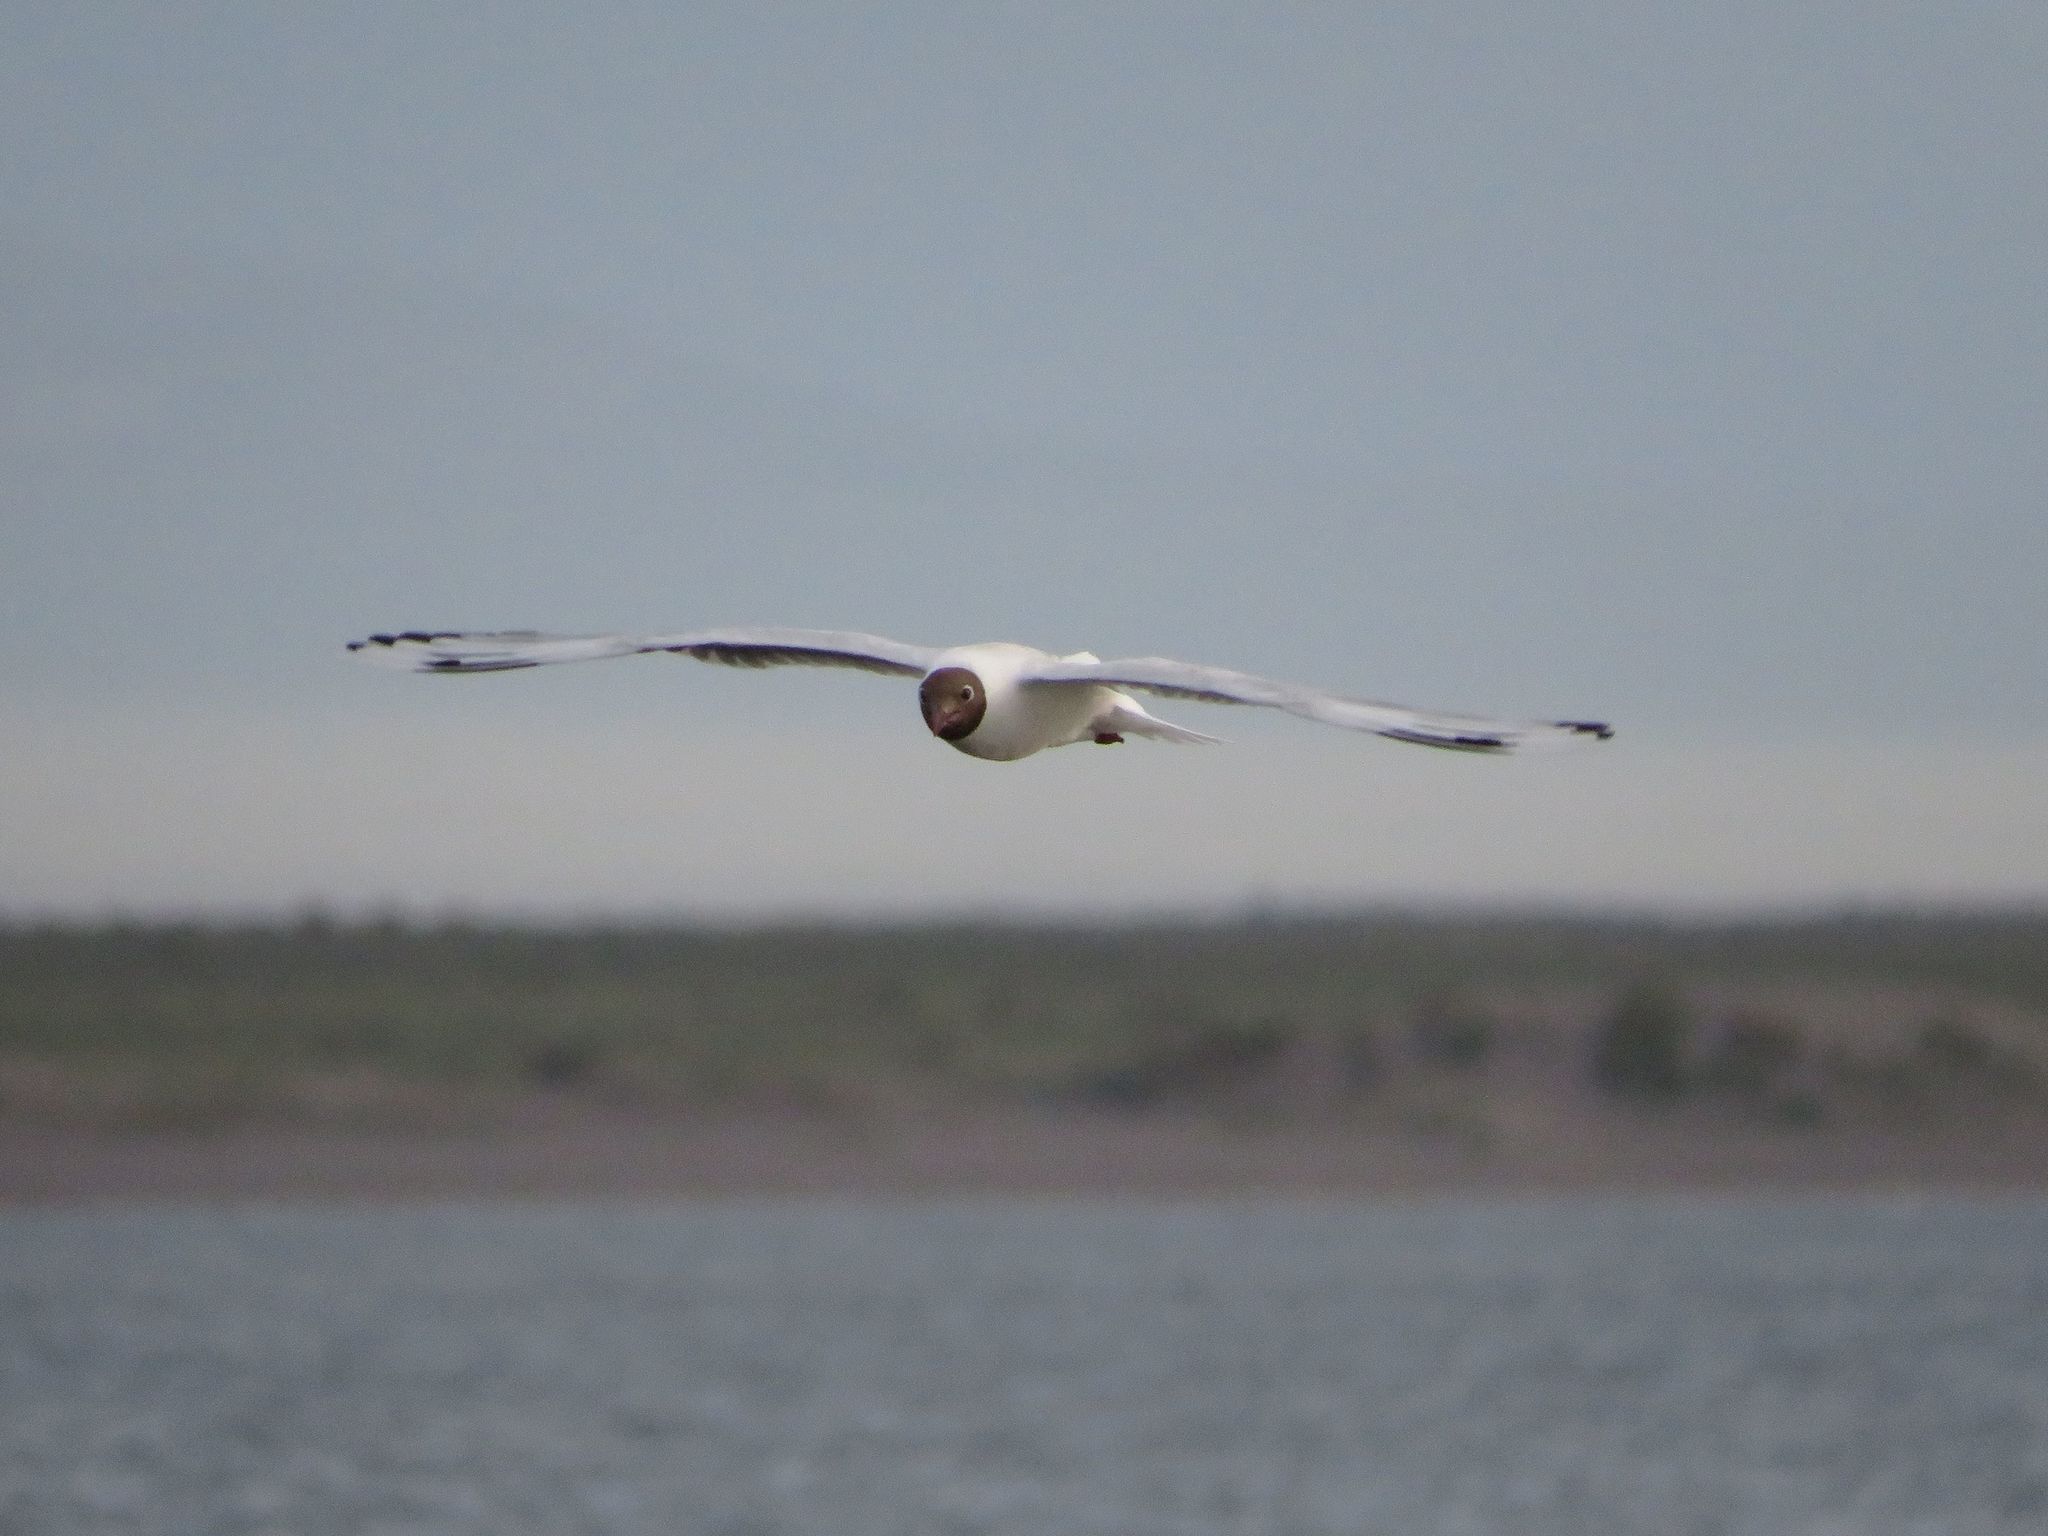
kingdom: Animalia
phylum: Chordata
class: Aves
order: Charadriiformes
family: Laridae
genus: Chroicocephalus
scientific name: Chroicocephalus maculipennis
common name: Brown-hooded gull
